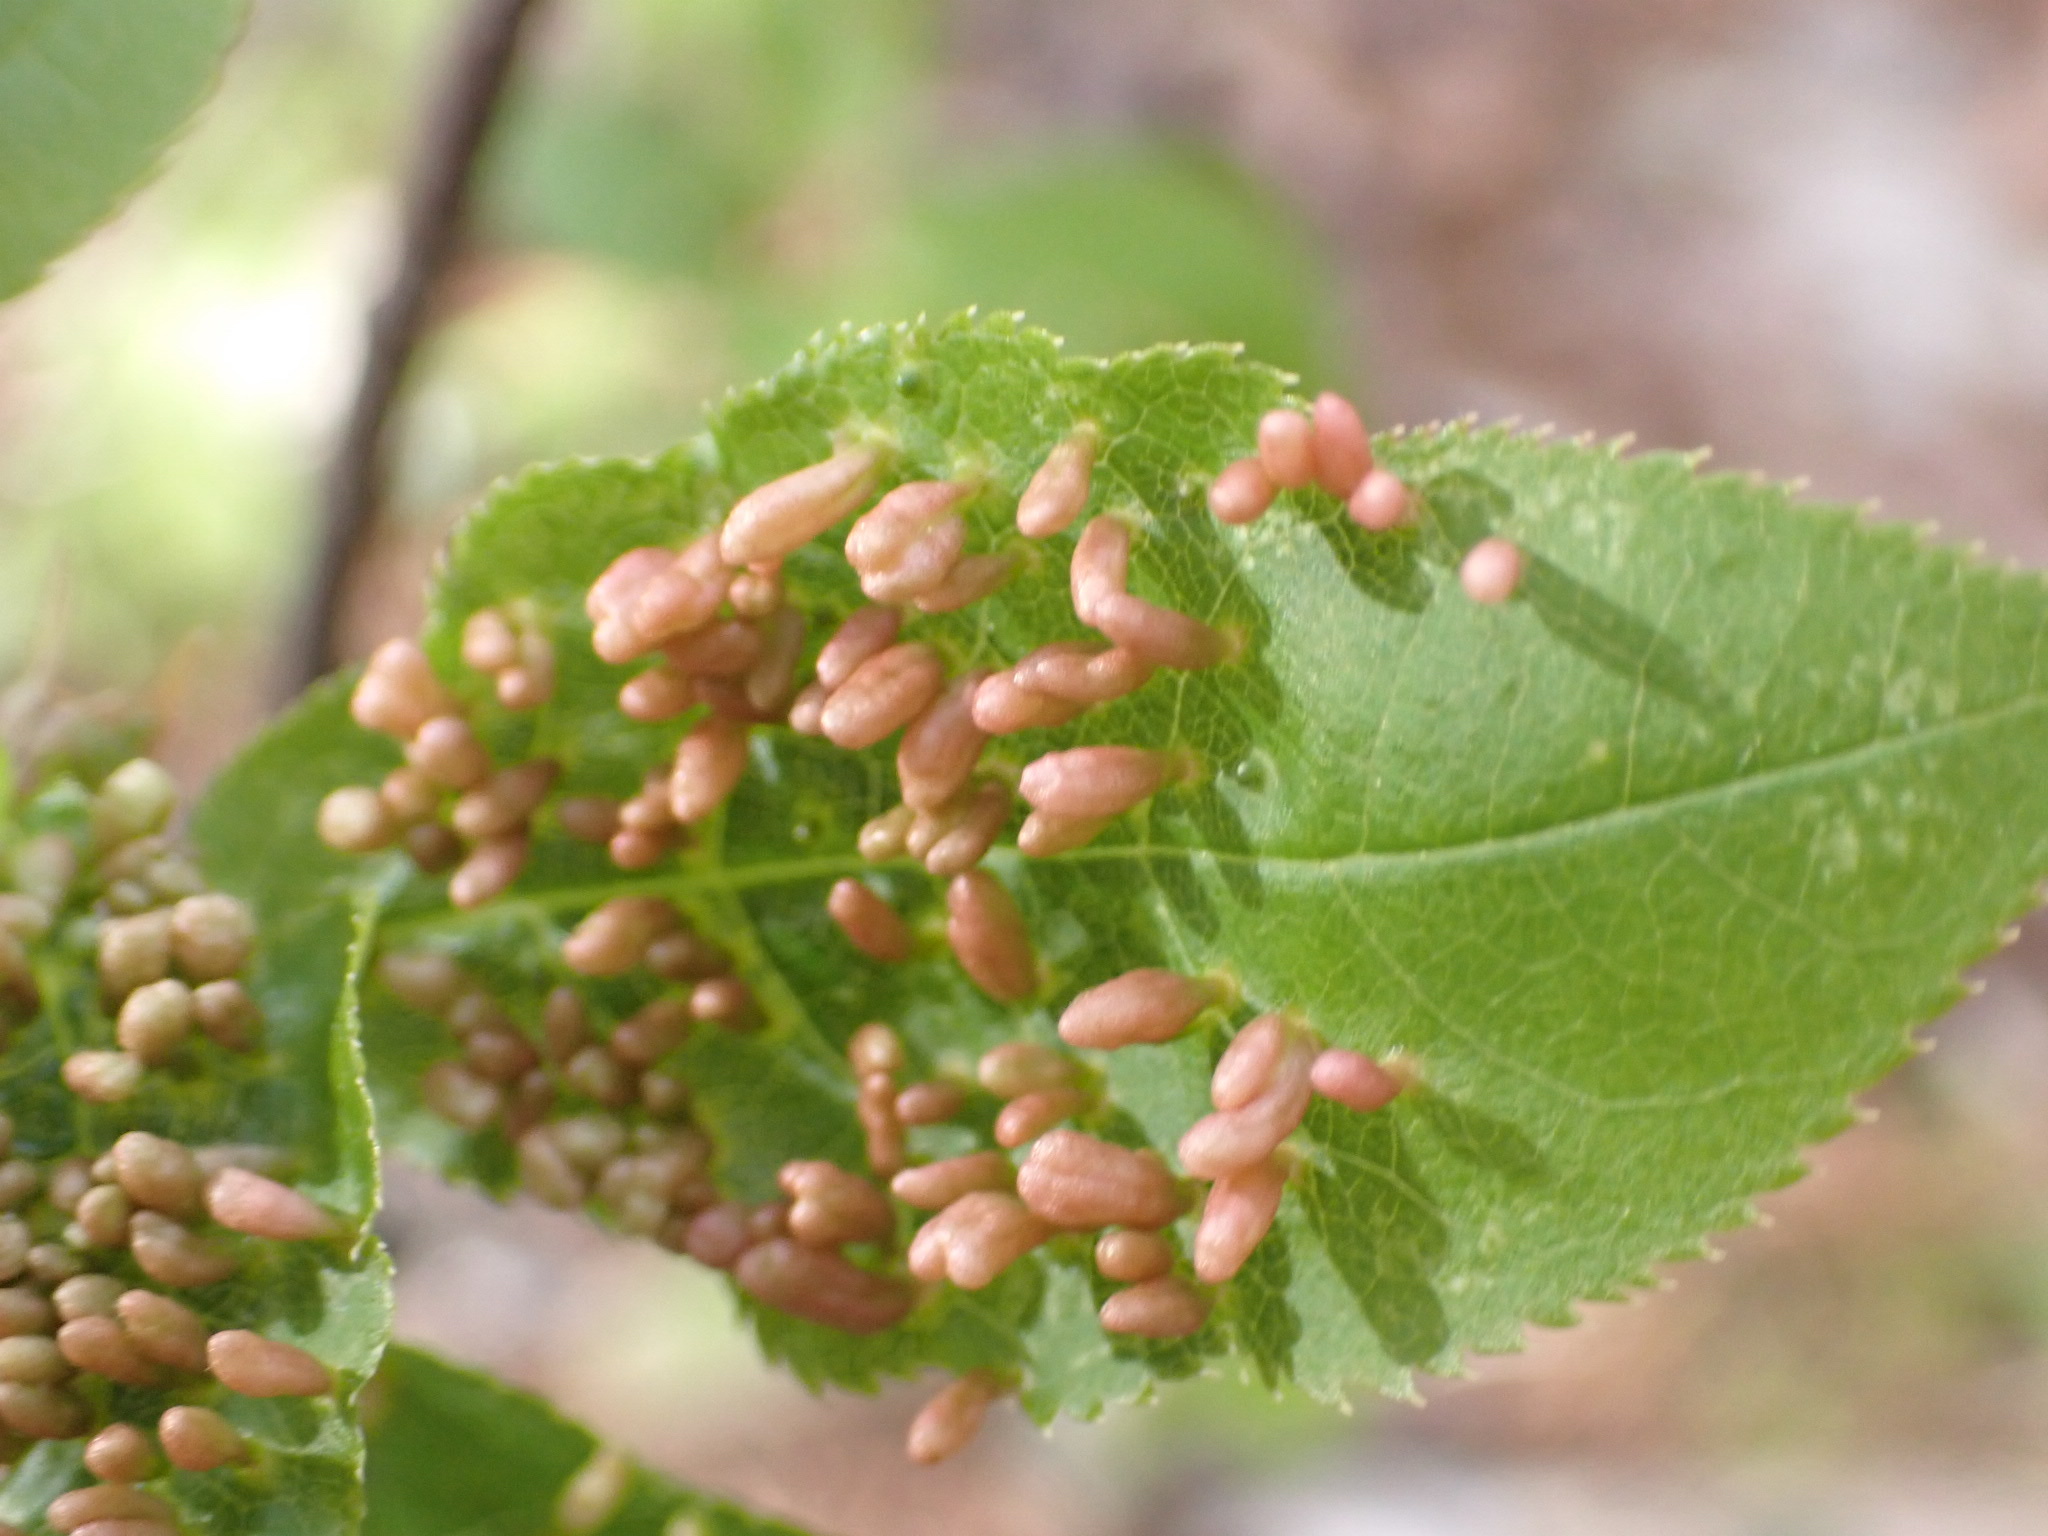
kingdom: Animalia
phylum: Arthropoda
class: Arachnida
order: Trombidiformes
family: Eriophyidae
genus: Eriophyes
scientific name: Eriophyes emarginatae
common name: Plum leaf gall mite
